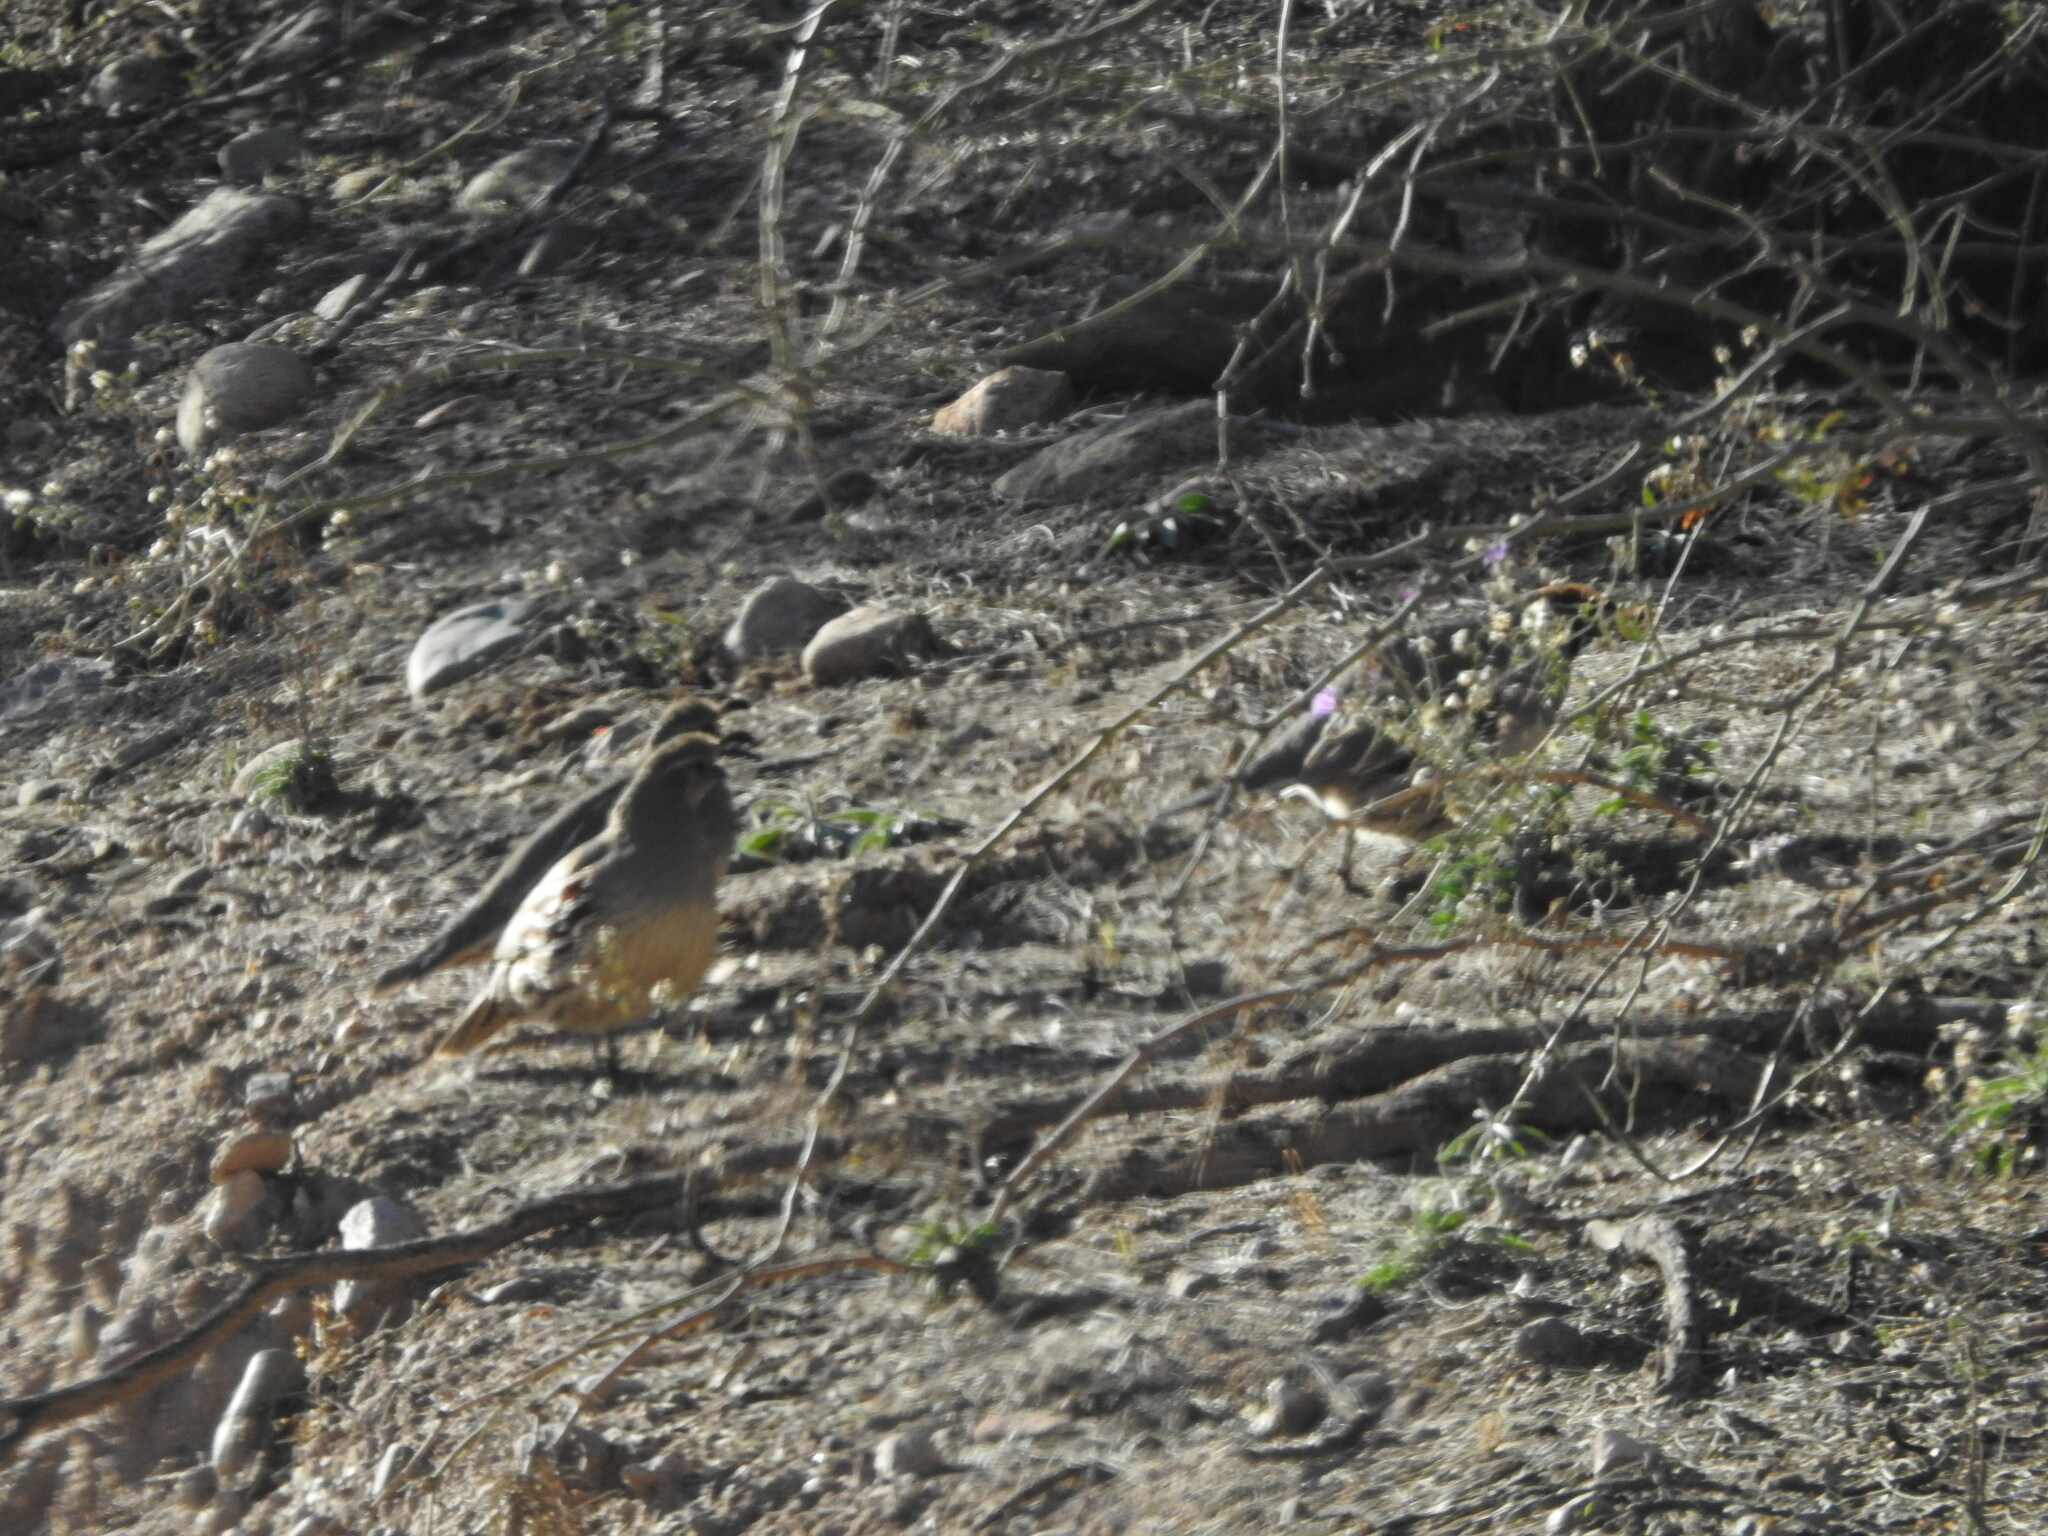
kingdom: Animalia
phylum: Chordata
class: Aves
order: Galliformes
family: Odontophoridae
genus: Callipepla
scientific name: Callipepla gambelii
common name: Gambel's quail
